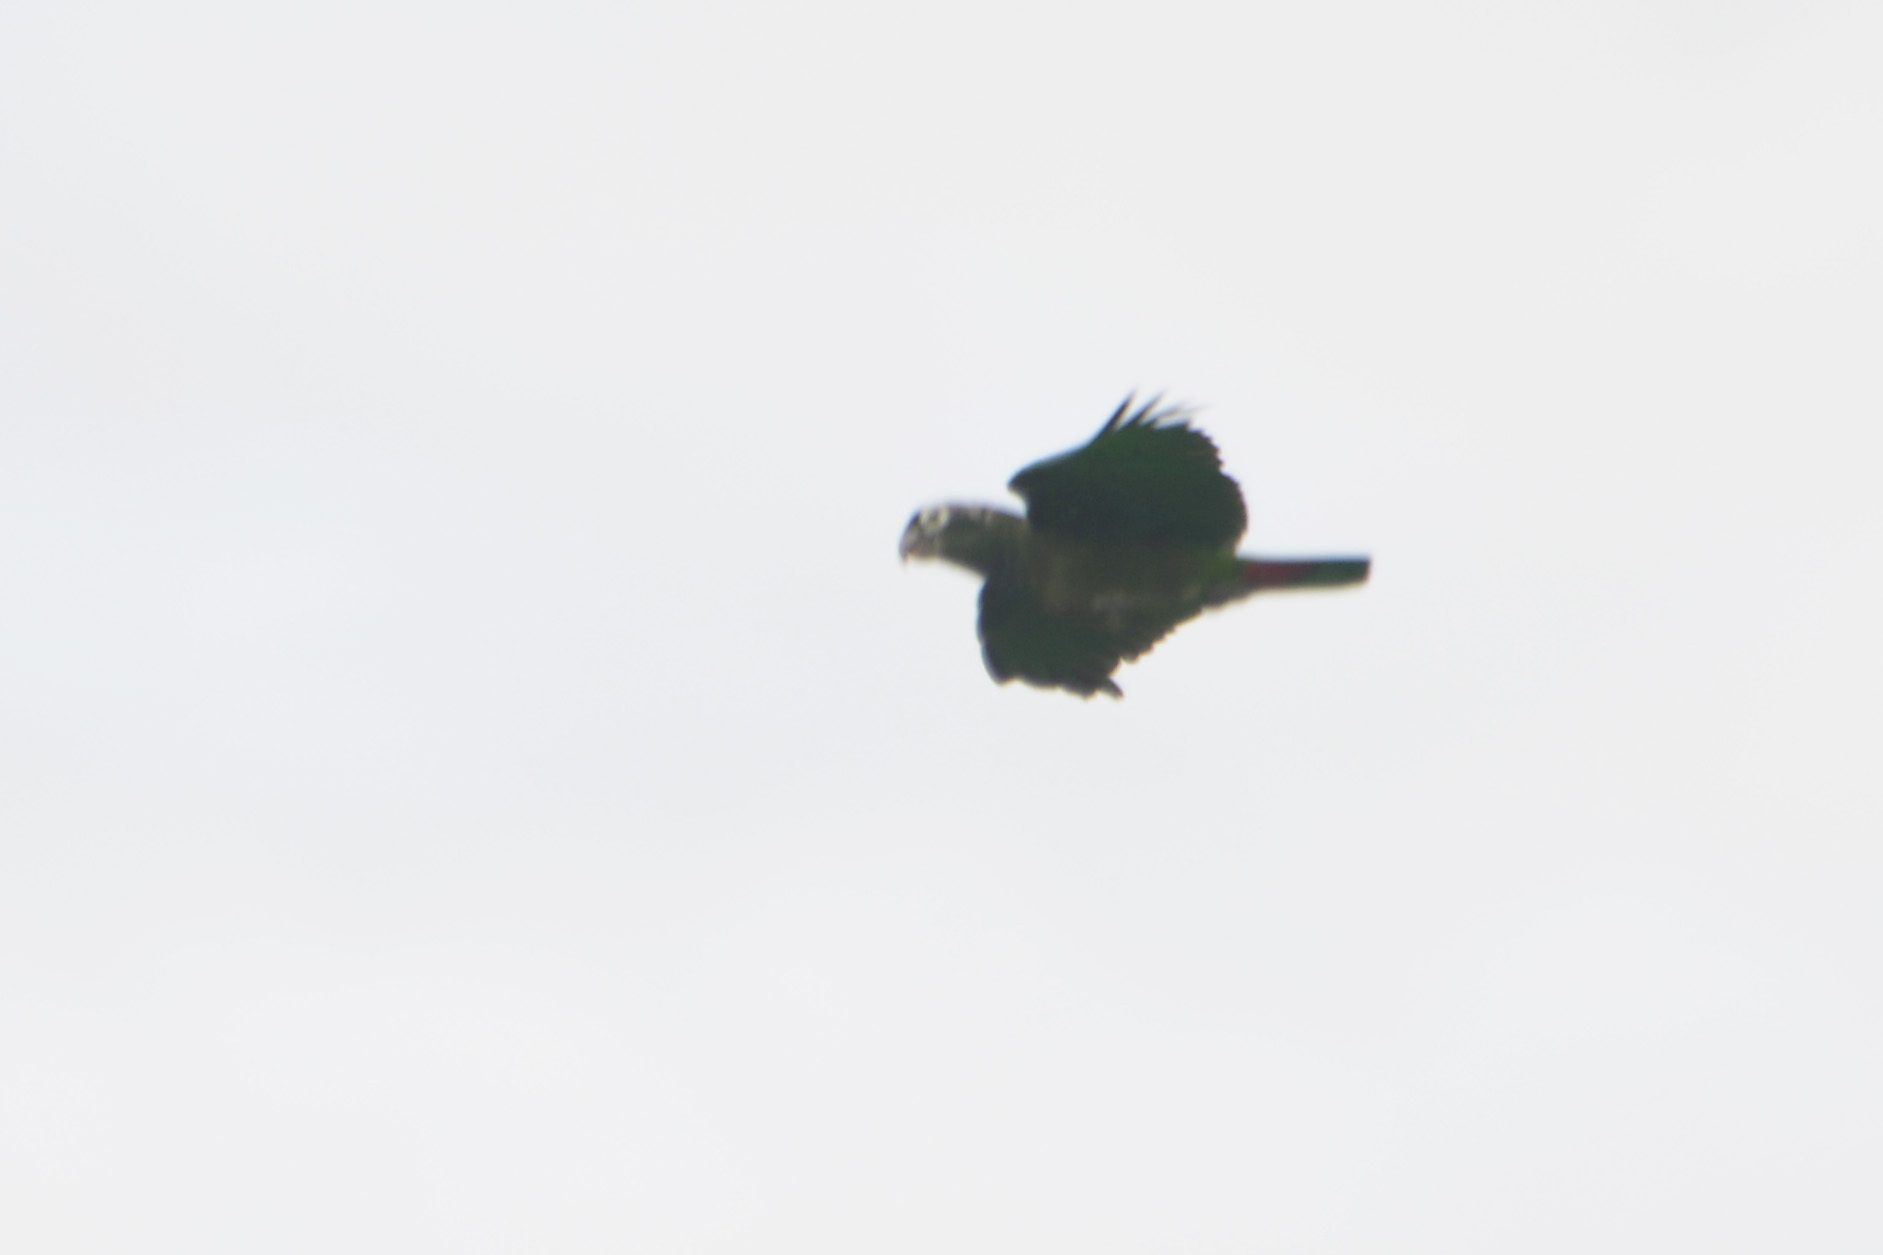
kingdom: Animalia
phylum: Chordata
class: Aves
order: Psittaciformes
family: Psittacidae
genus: Pionus
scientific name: Pionus maximiliani
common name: Scaly-headed parrot
